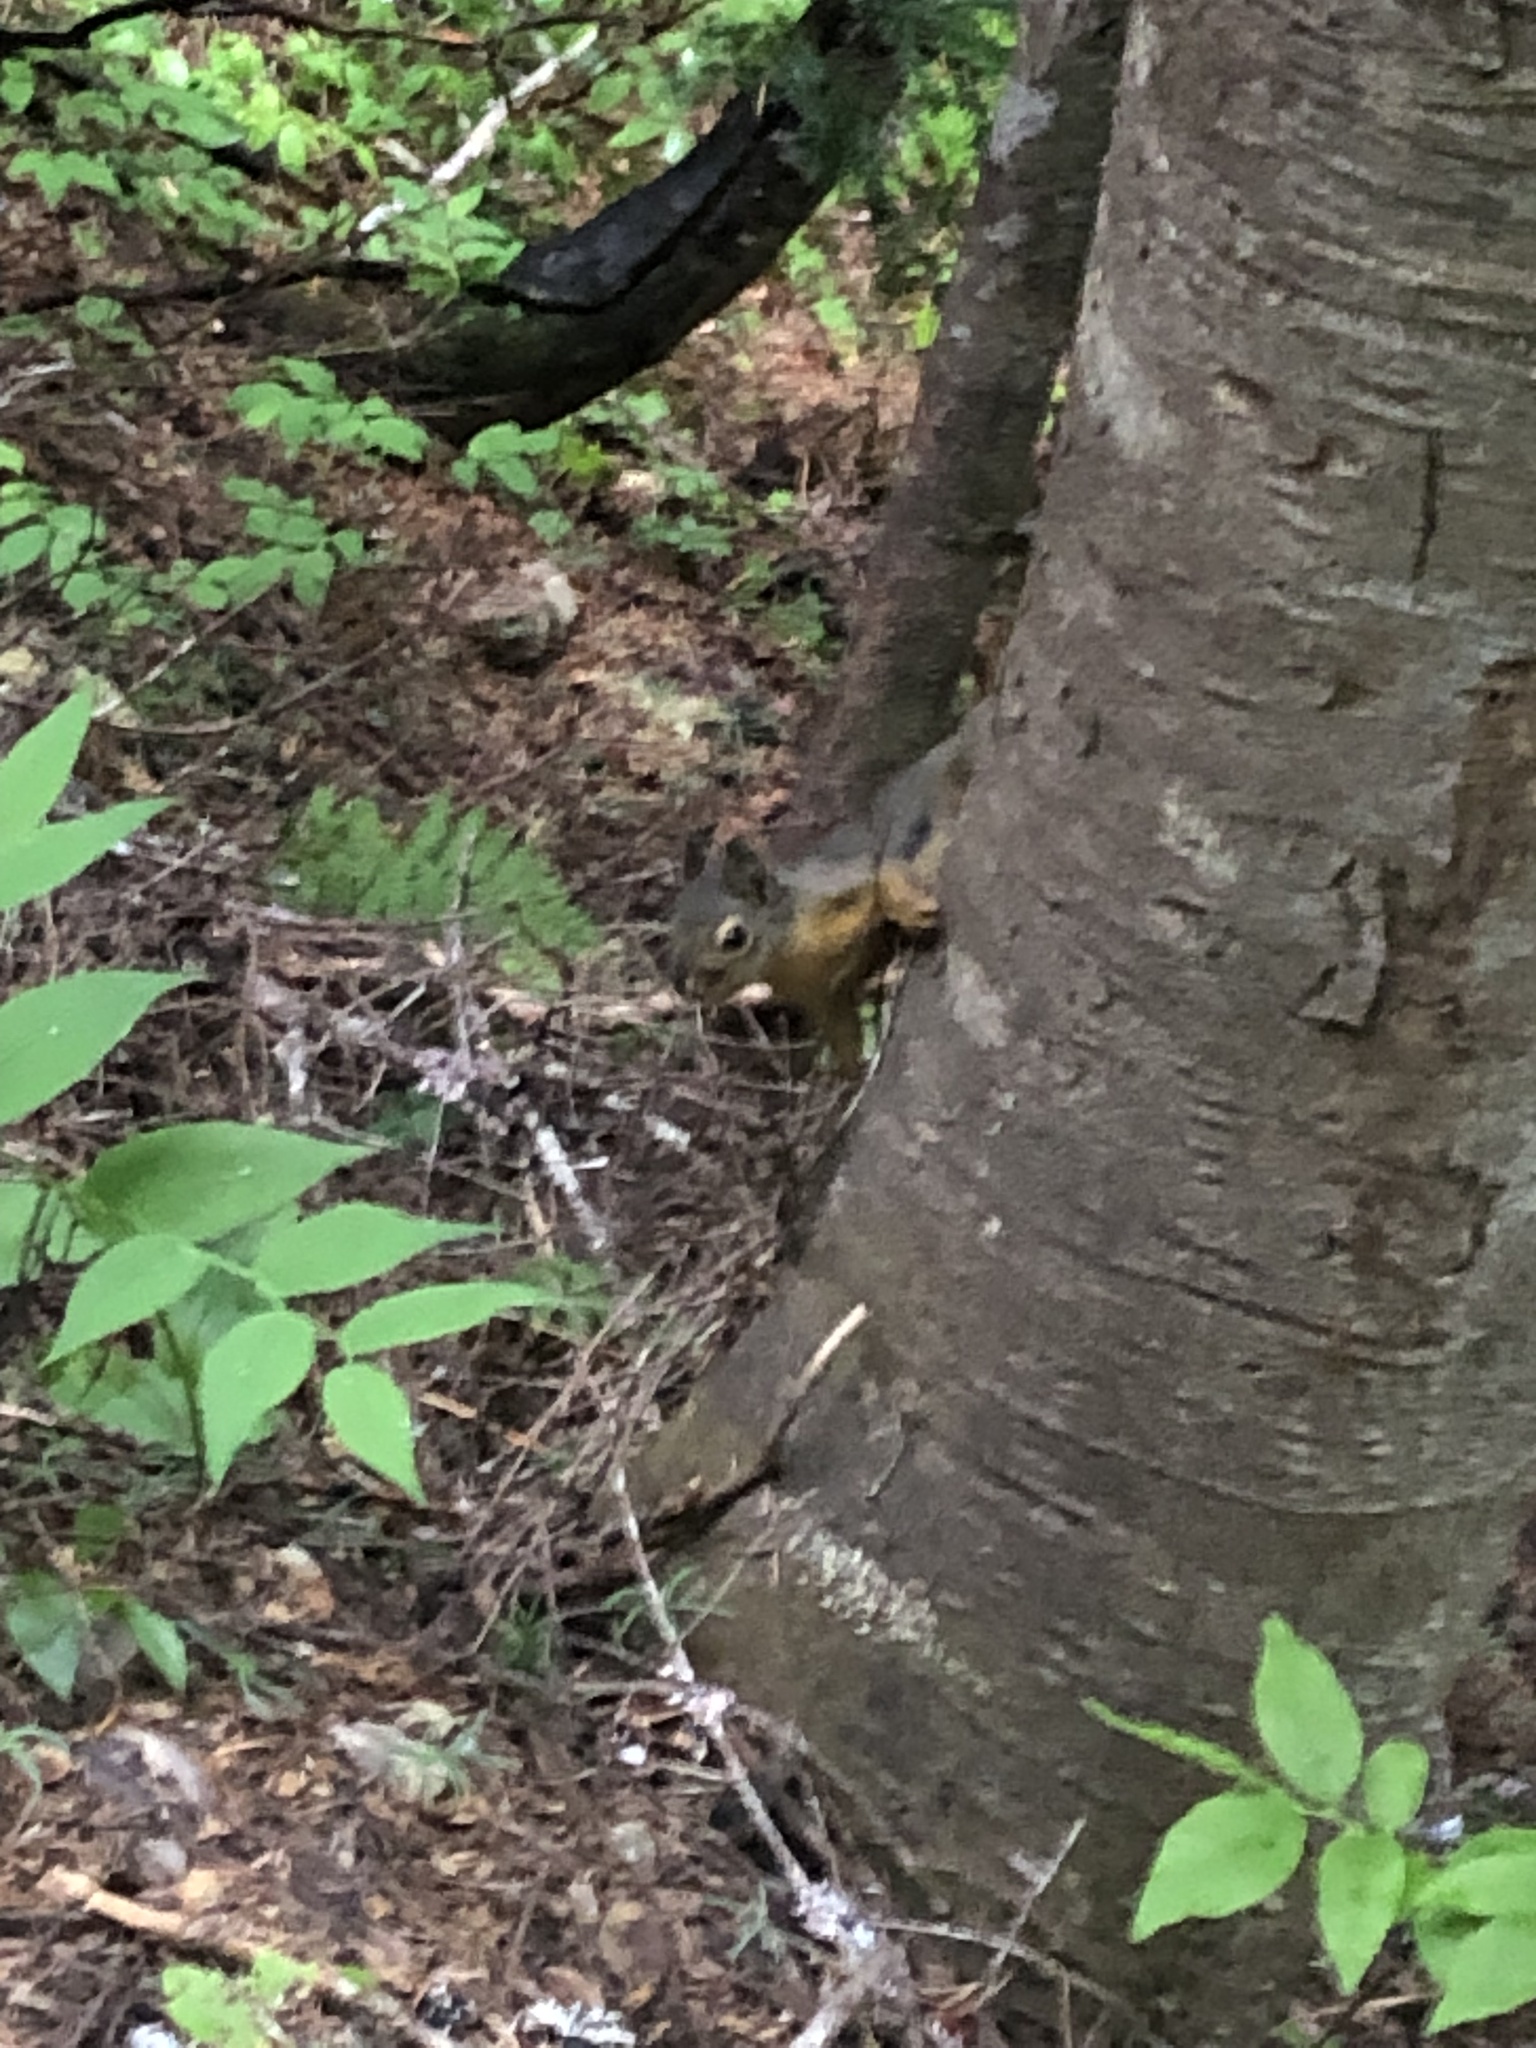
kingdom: Animalia
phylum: Chordata
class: Mammalia
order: Rodentia
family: Sciuridae
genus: Tamiasciurus
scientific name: Tamiasciurus douglasii
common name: Douglas's squirrel
